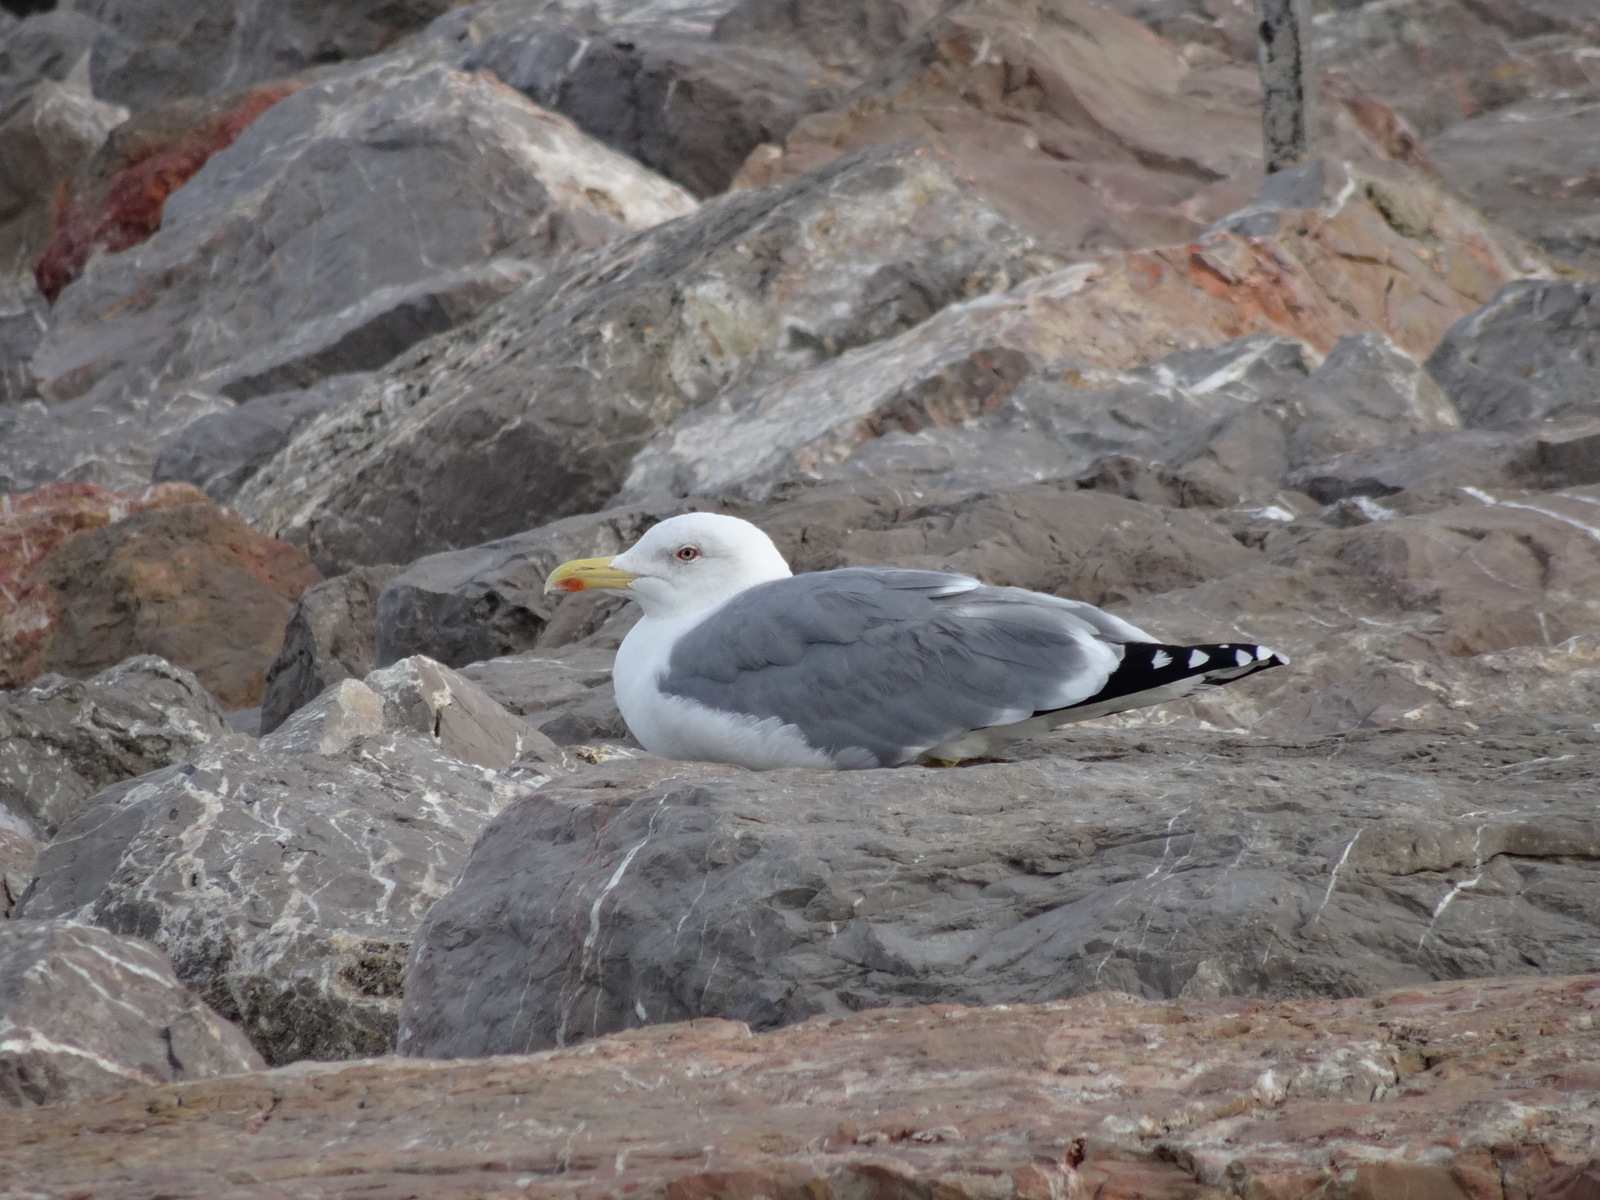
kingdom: Animalia
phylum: Chordata
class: Aves
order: Charadriiformes
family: Laridae
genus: Larus
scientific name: Larus michahellis
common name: Yellow-legged gull
